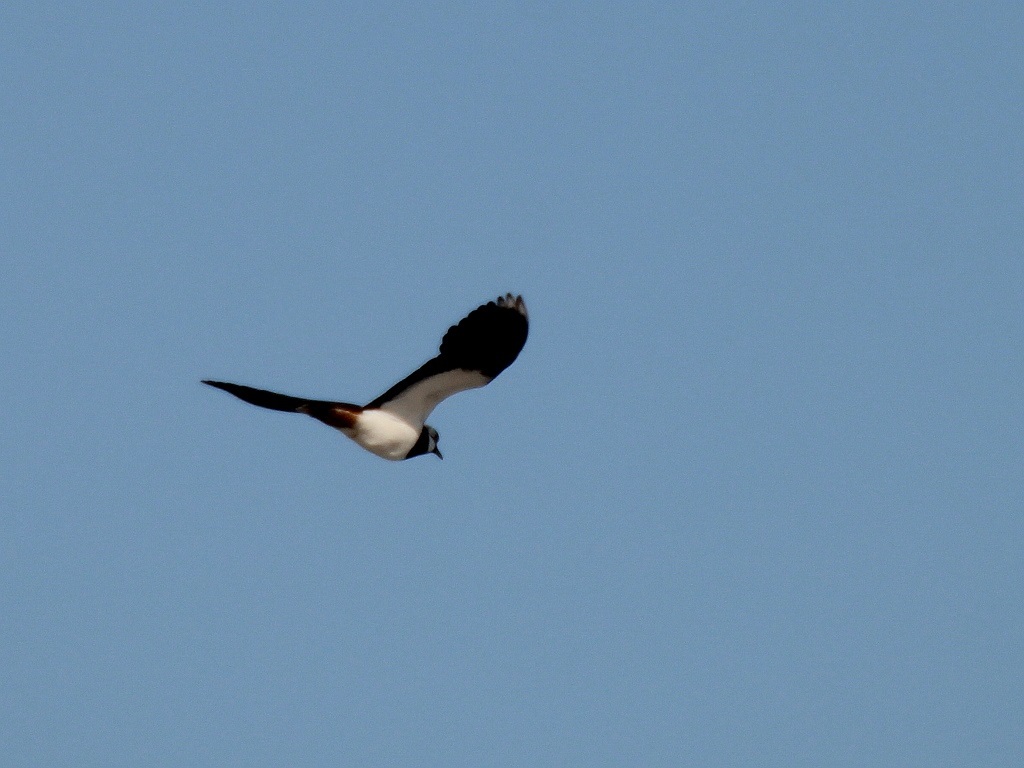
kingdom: Animalia
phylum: Chordata
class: Aves
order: Charadriiformes
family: Charadriidae
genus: Vanellus
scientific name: Vanellus vanellus
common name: Northern lapwing
